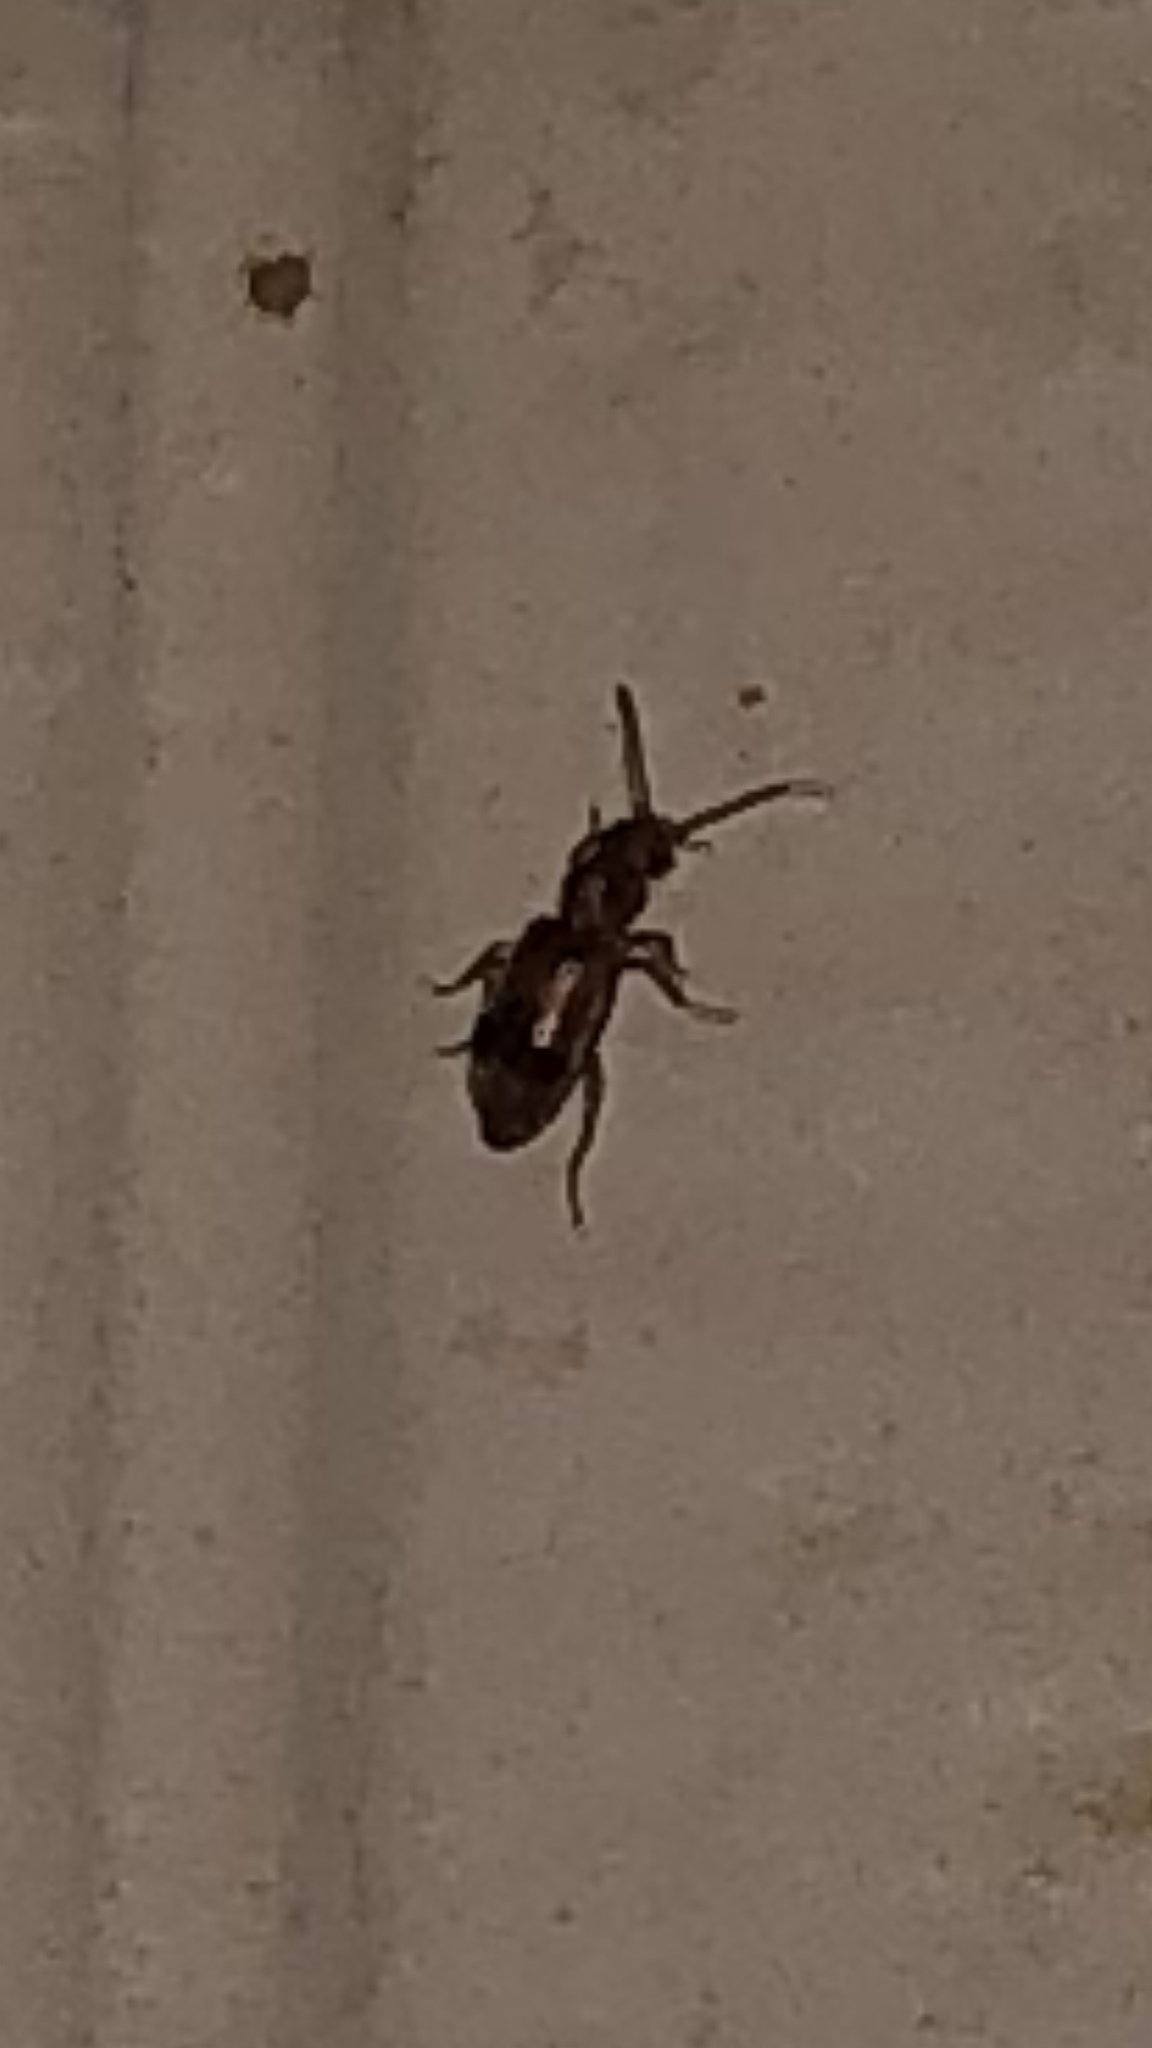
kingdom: Animalia
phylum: Arthropoda
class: Insecta
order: Coleoptera
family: Anthicidae
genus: Notoxus
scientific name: Notoxus
